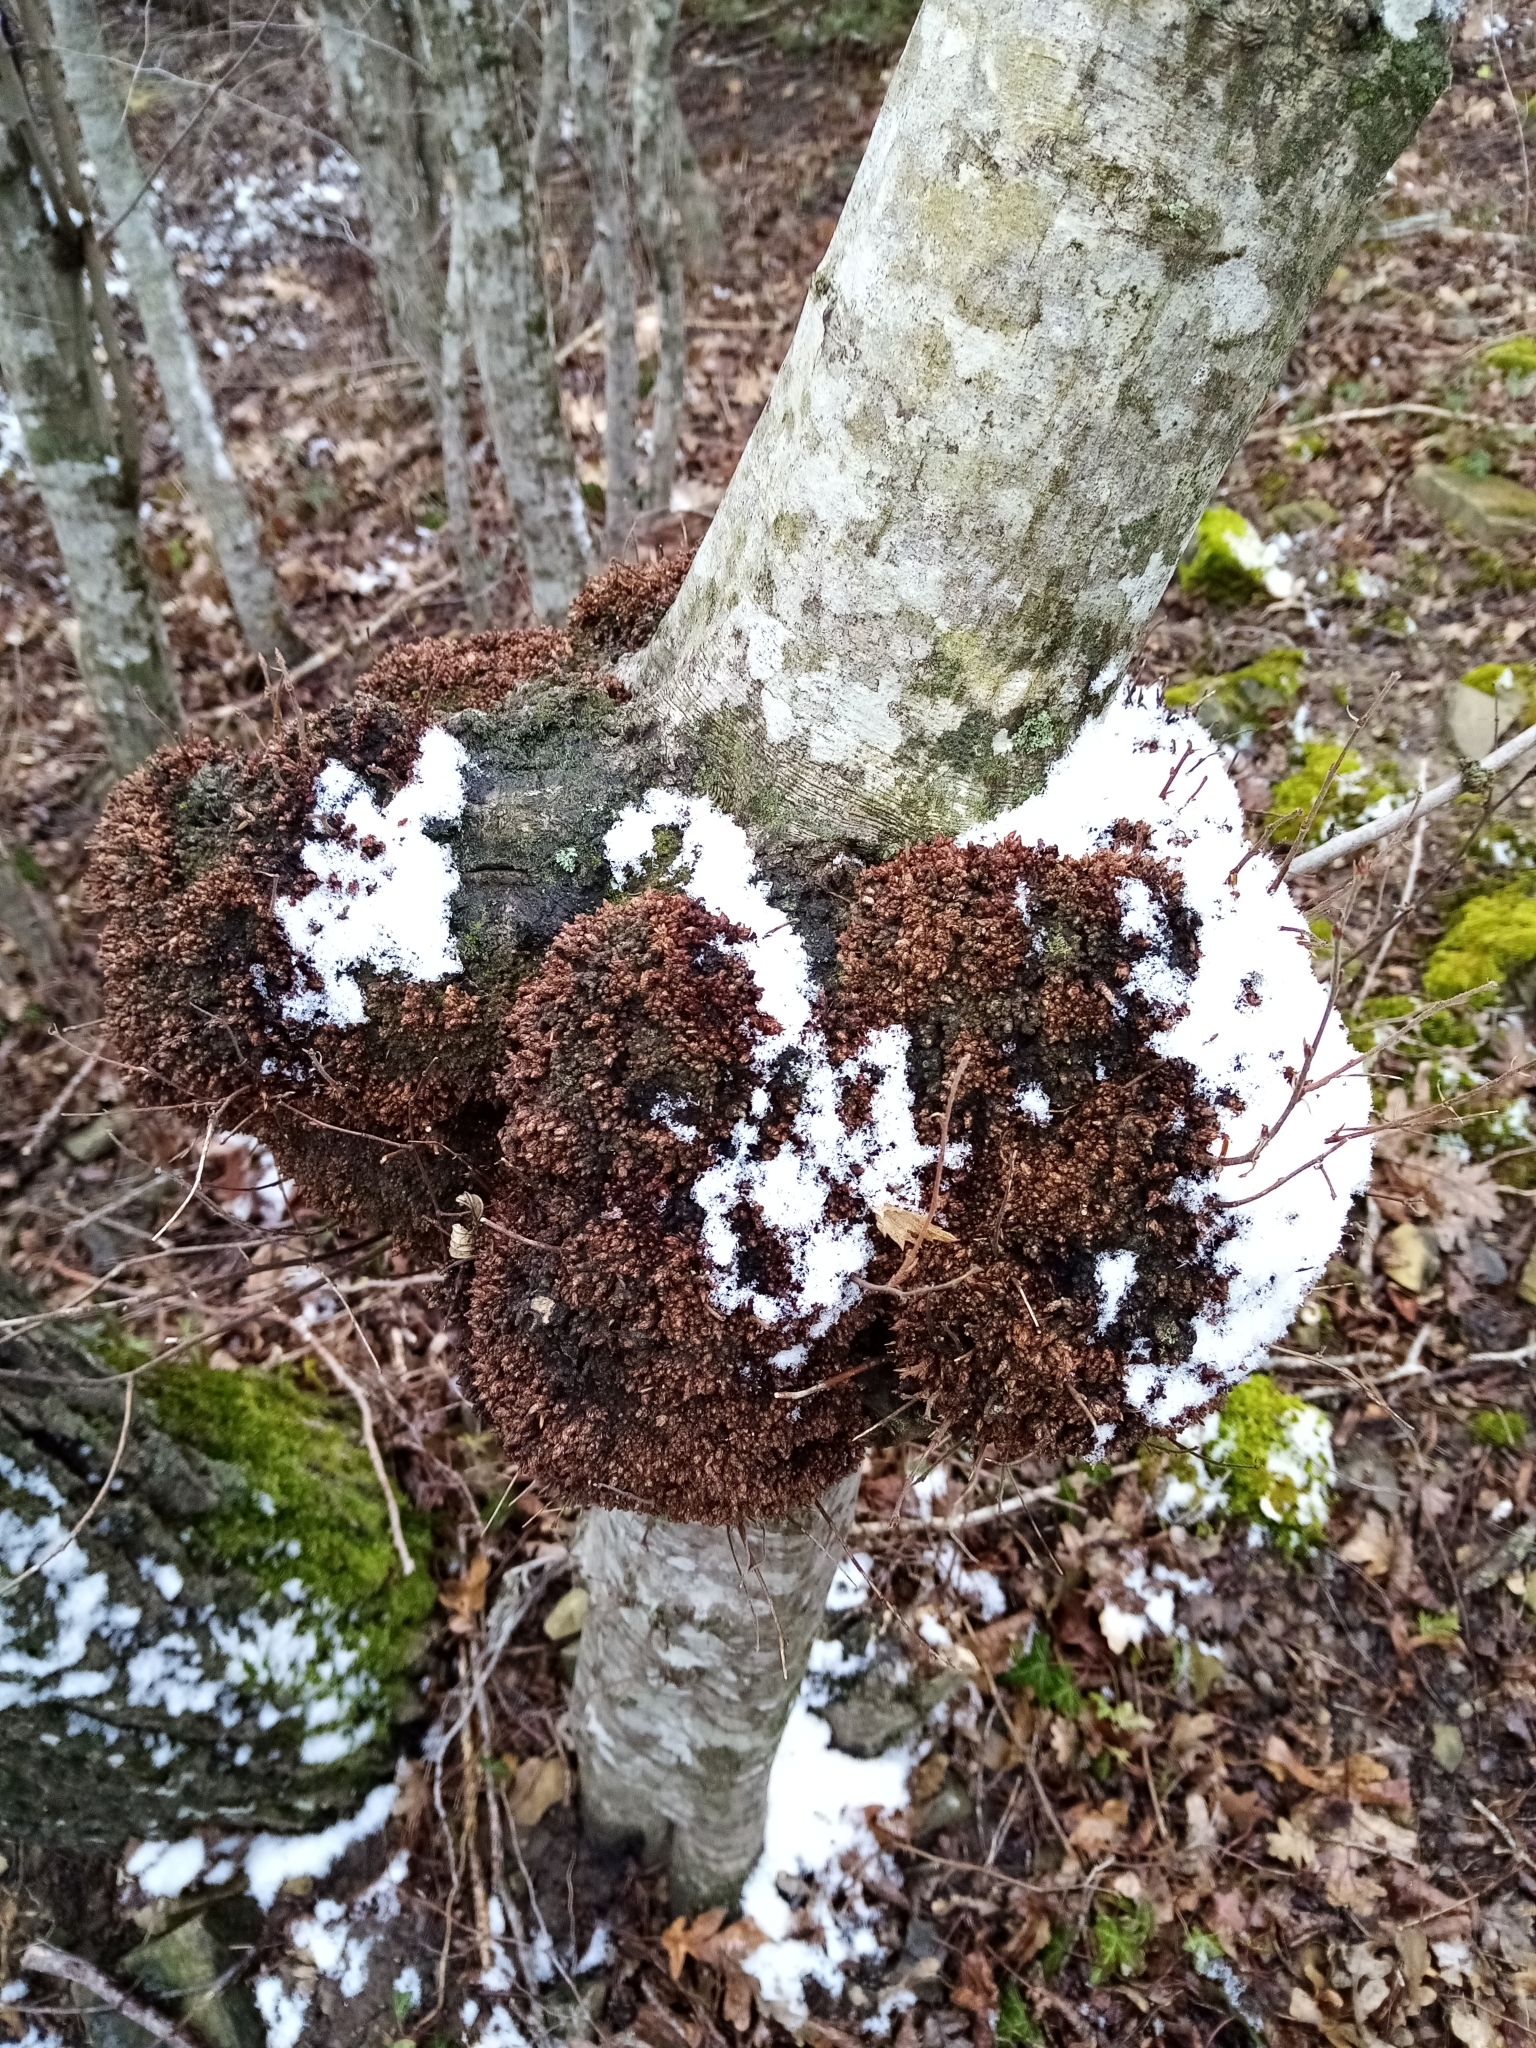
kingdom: Plantae
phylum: Tracheophyta
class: Magnoliopsida
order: Fagales
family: Betulaceae
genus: Carpinus
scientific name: Carpinus orientalis
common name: Eastern hornbeam
